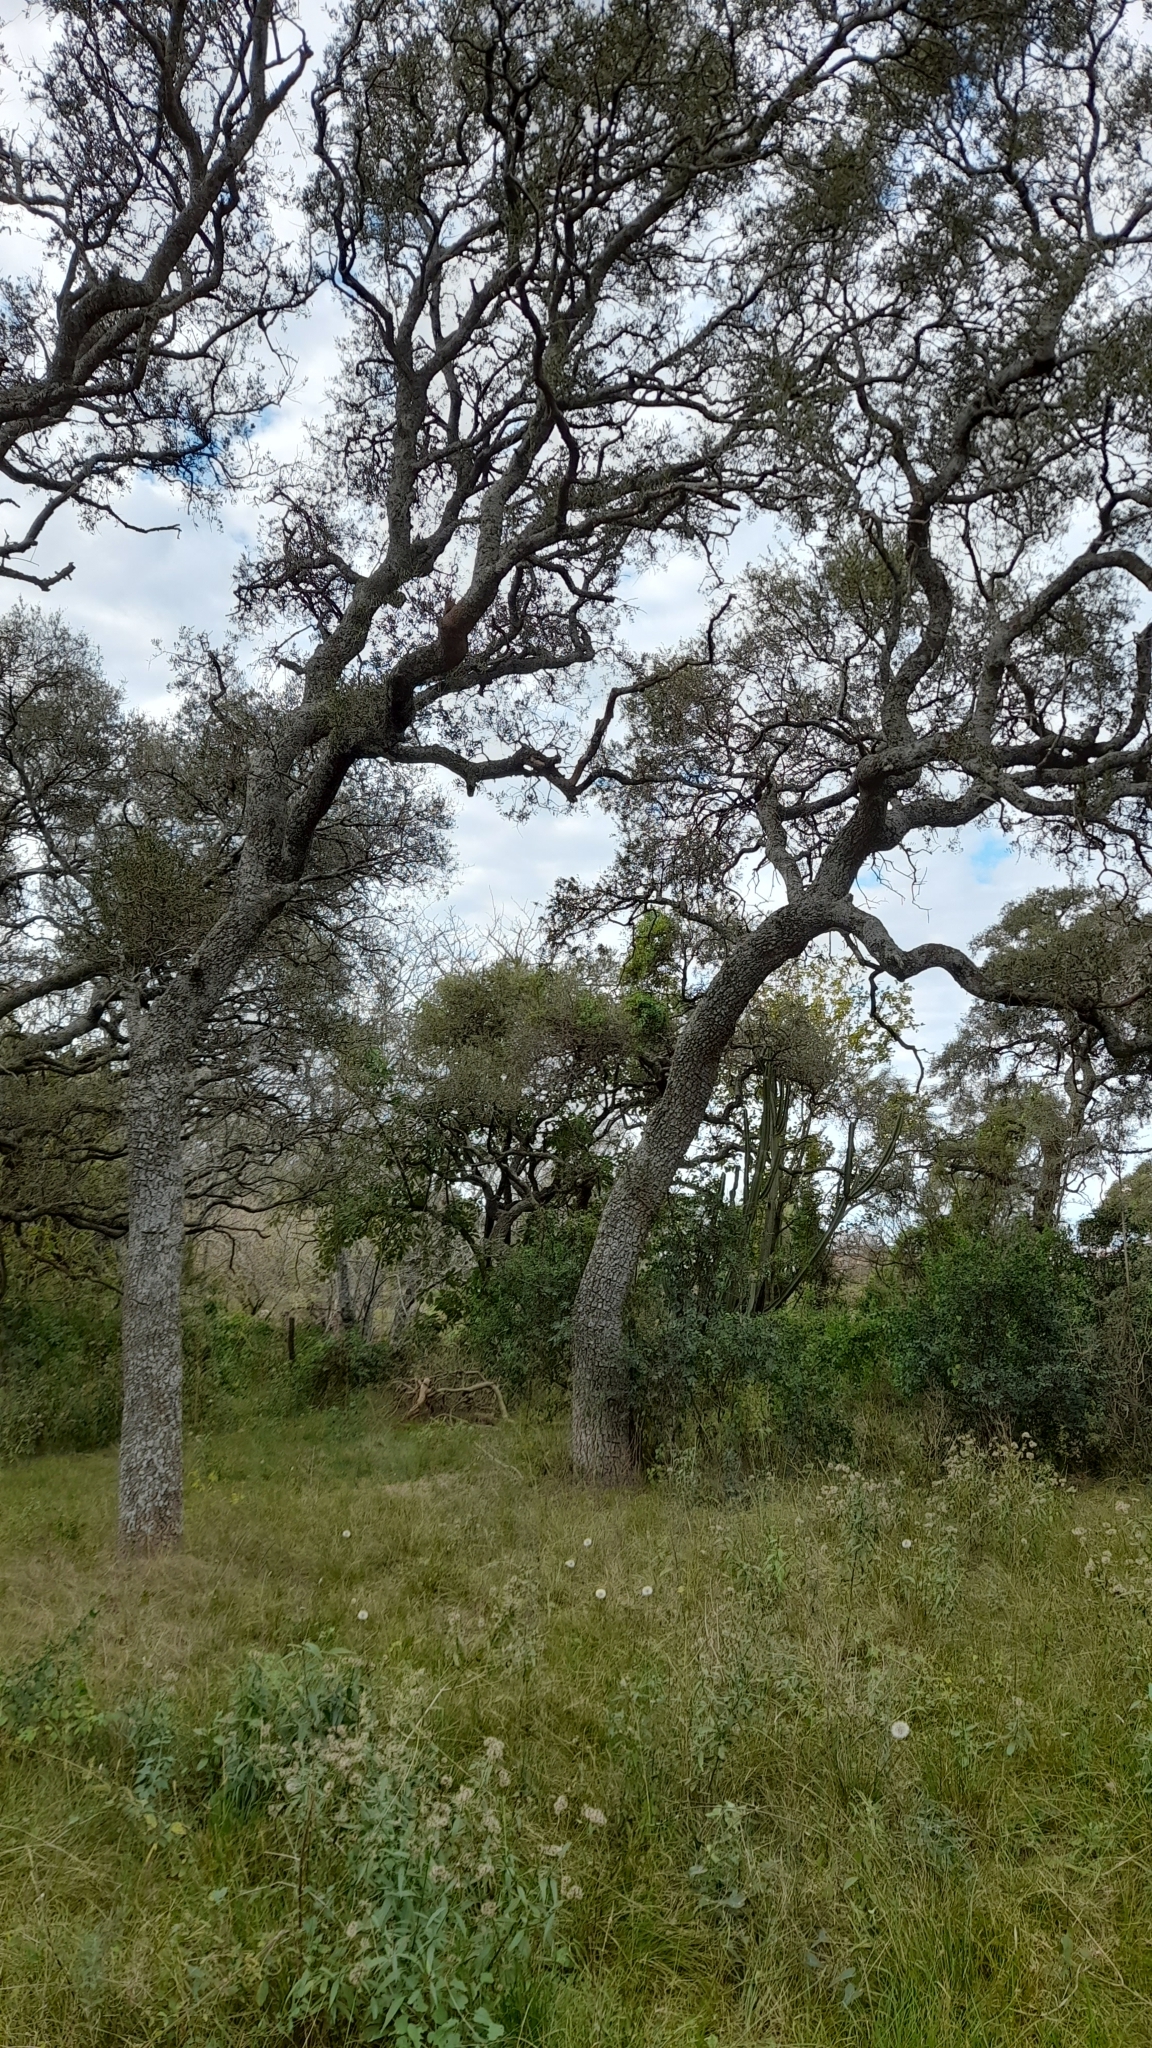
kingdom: Plantae
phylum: Tracheophyta
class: Magnoliopsida
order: Gentianales
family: Apocynaceae
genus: Aspidosperma
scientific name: Aspidosperma quebracho-blanco
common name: White quebracho
